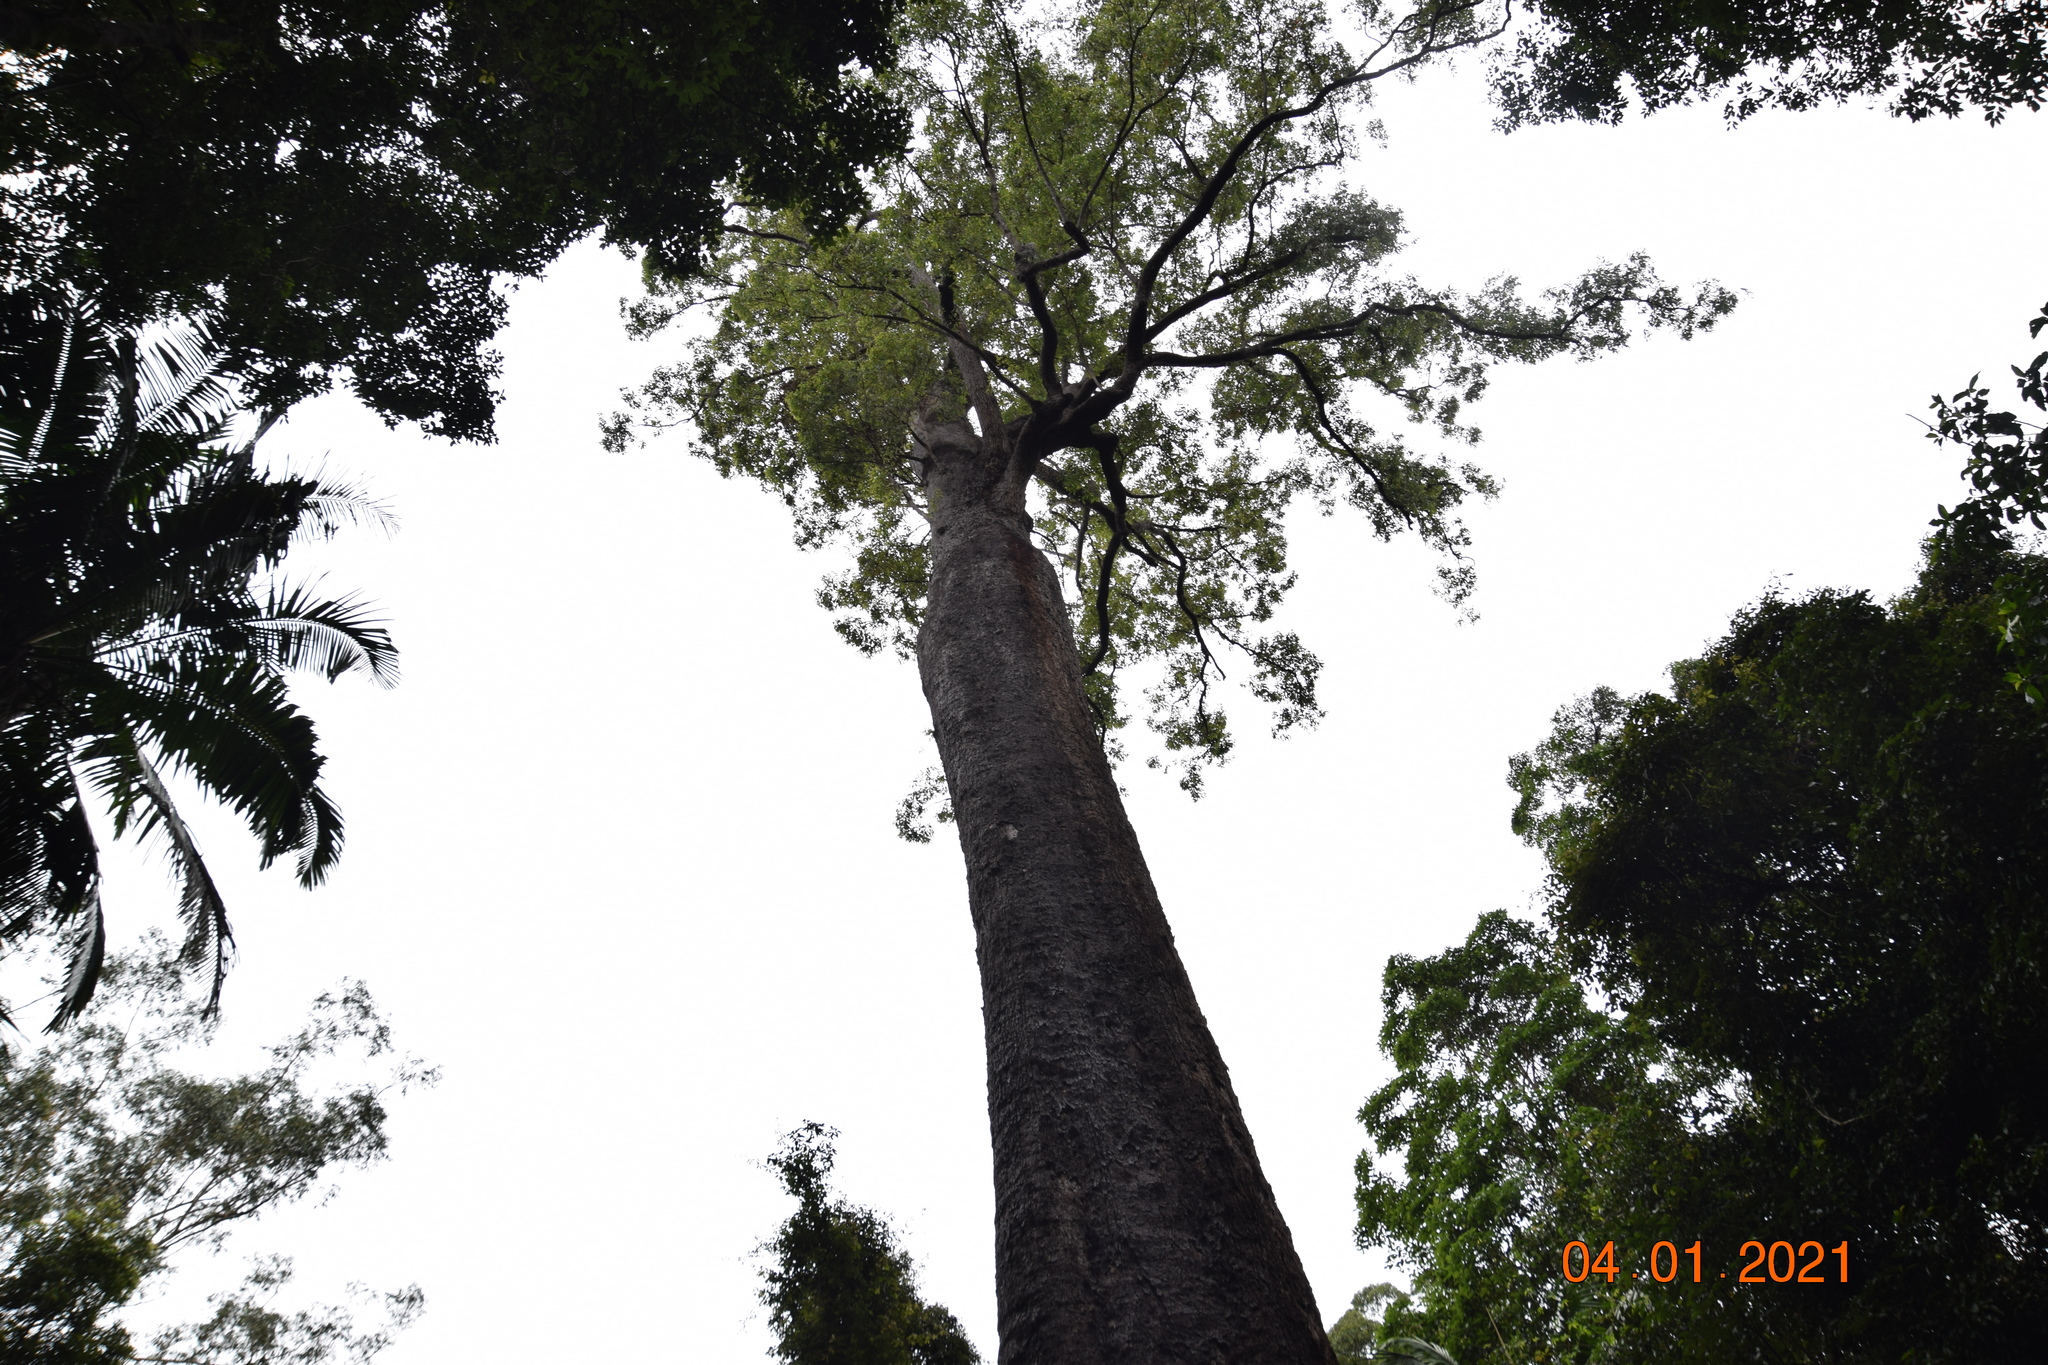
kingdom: Plantae
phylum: Tracheophyta
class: Magnoliopsida
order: Myrtales
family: Myrtaceae
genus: Corymbia
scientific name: Corymbia gummifera
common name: Red bloodwood
